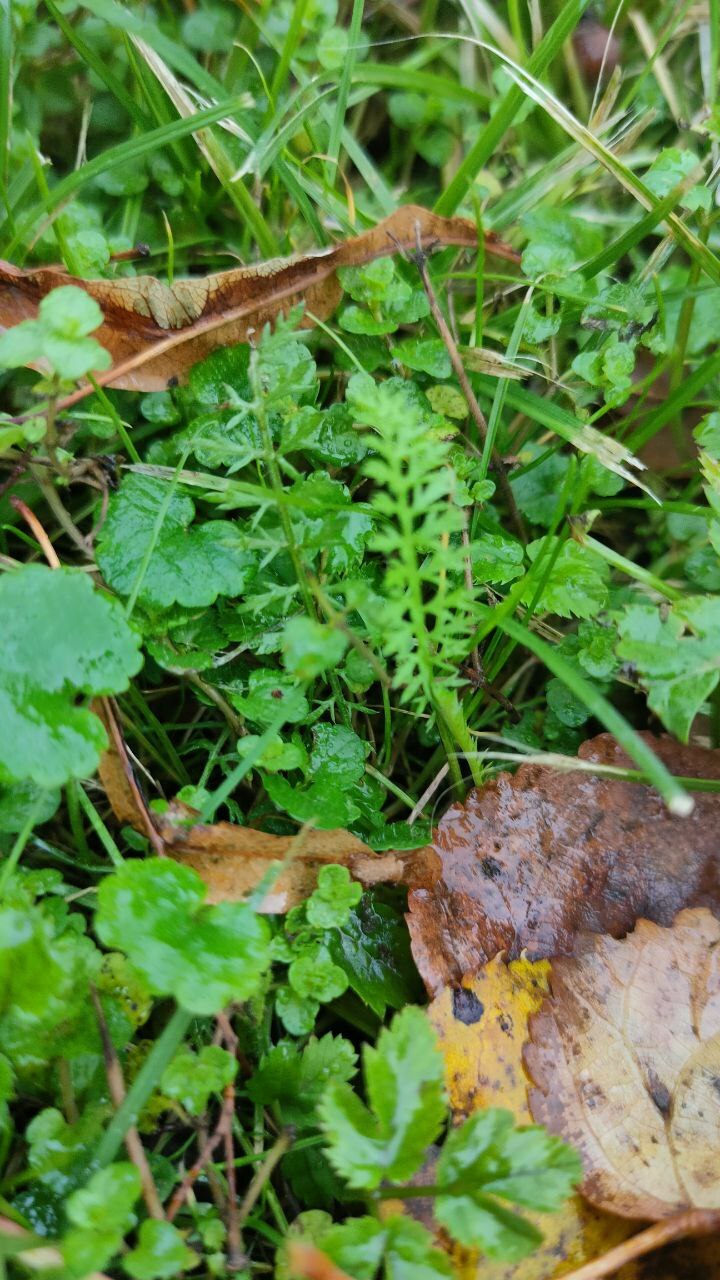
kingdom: Plantae
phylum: Tracheophyta
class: Magnoliopsida
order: Asterales
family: Asteraceae
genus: Achillea
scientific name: Achillea millefolium
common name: Yarrow
